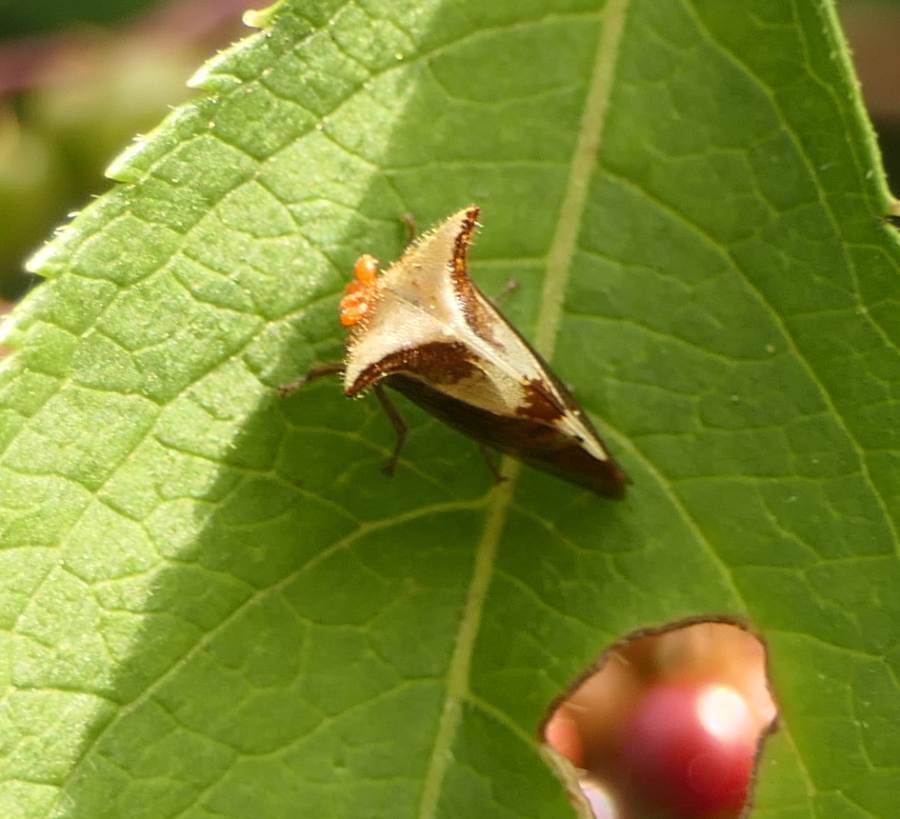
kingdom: Animalia
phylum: Arthropoda
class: Insecta
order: Hemiptera
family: Membracidae
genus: Stictocephala
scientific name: Stictocephala diceros
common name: Two-horned treehopper
